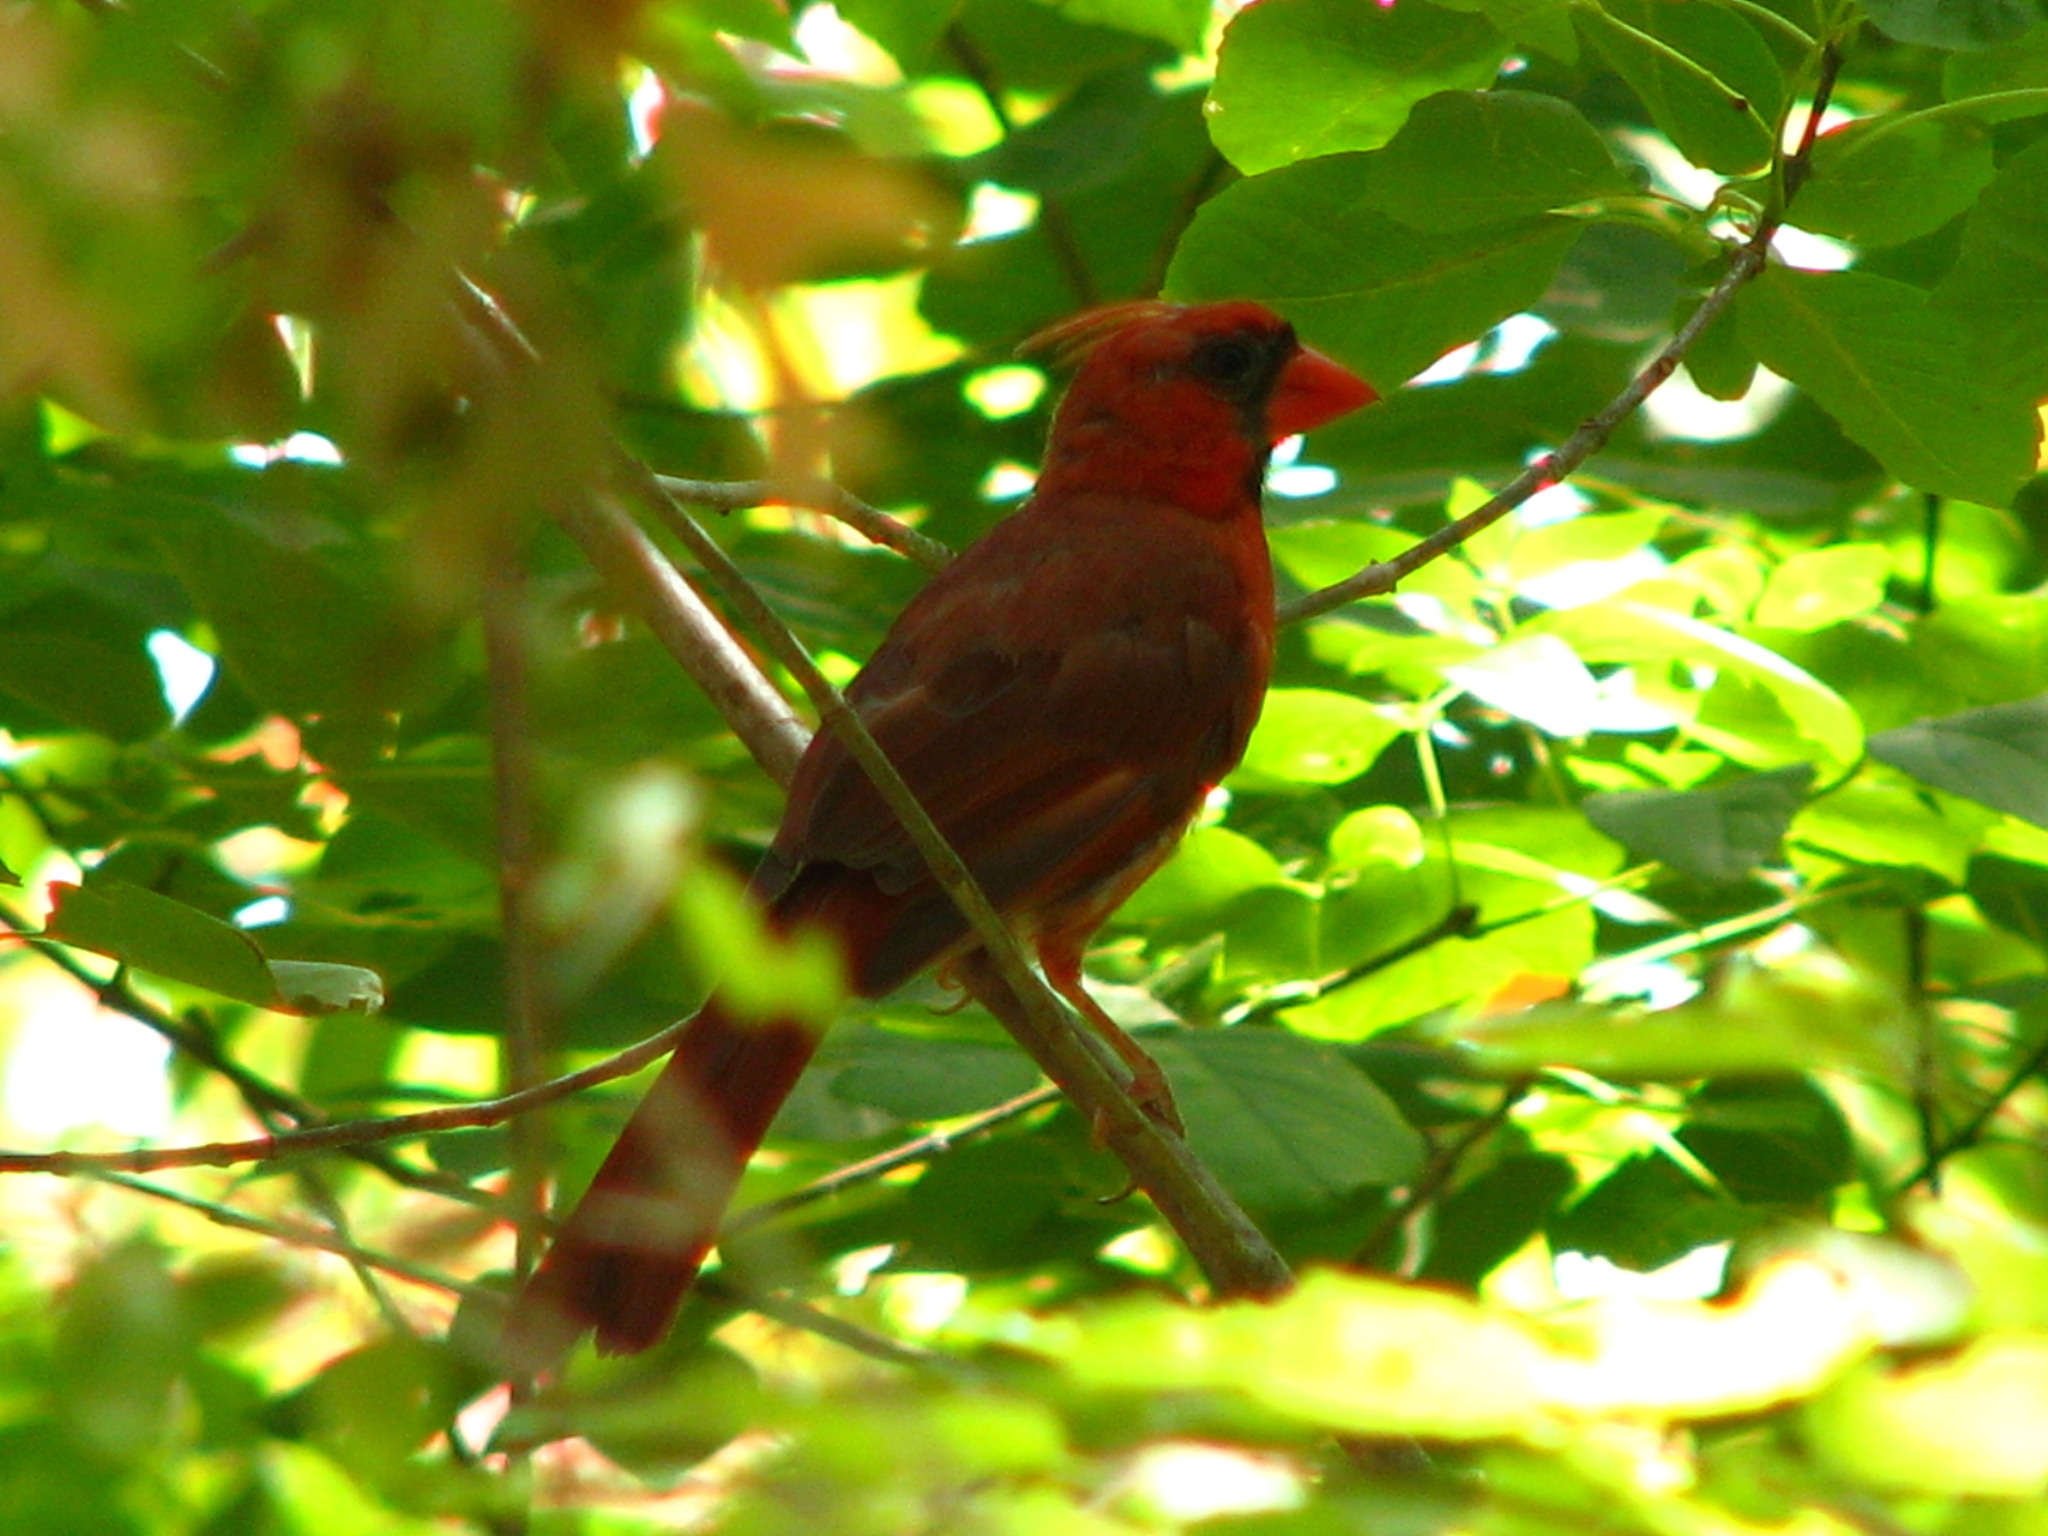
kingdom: Animalia
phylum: Chordata
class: Aves
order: Passeriformes
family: Cardinalidae
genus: Cardinalis
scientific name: Cardinalis cardinalis
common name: Northern cardinal
